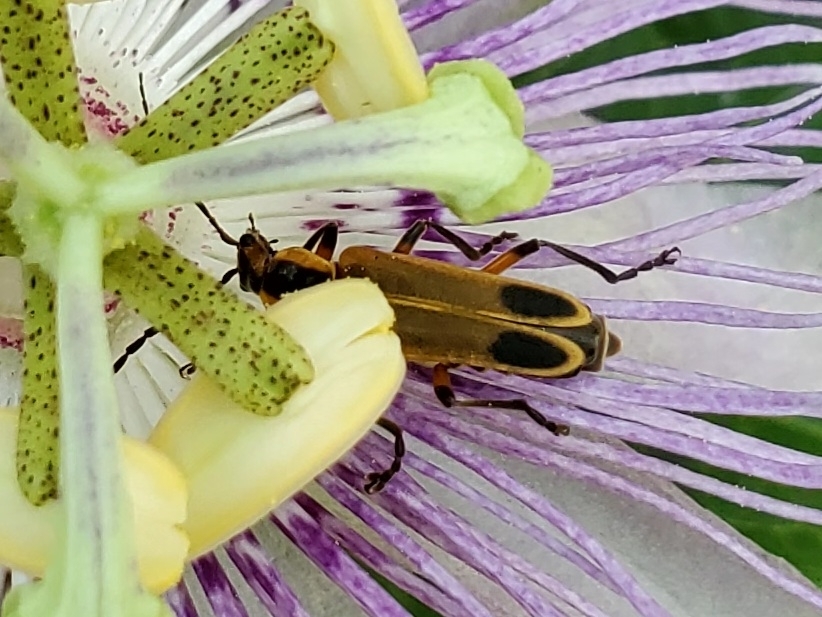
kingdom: Animalia
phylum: Arthropoda
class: Insecta
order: Coleoptera
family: Cantharidae
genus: Chauliognathus
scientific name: Chauliognathus marginatus
